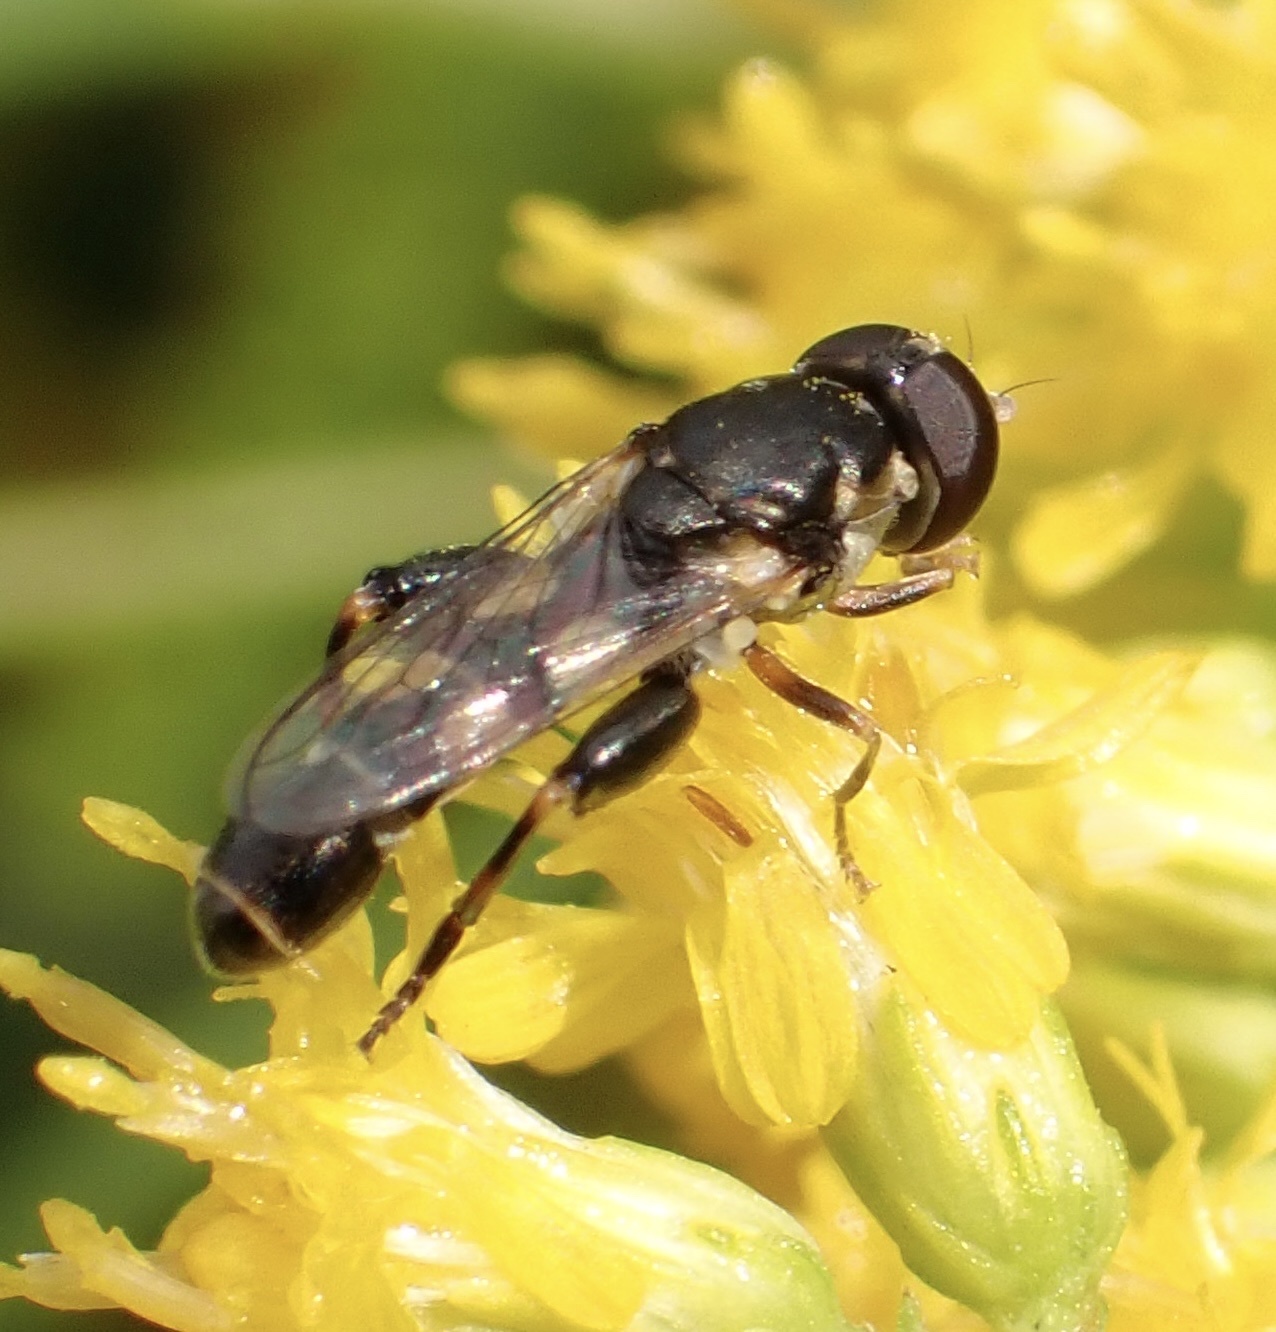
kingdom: Animalia
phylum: Arthropoda
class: Insecta
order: Diptera
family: Syrphidae
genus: Syritta
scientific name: Syritta pipiens
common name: Hover fly
